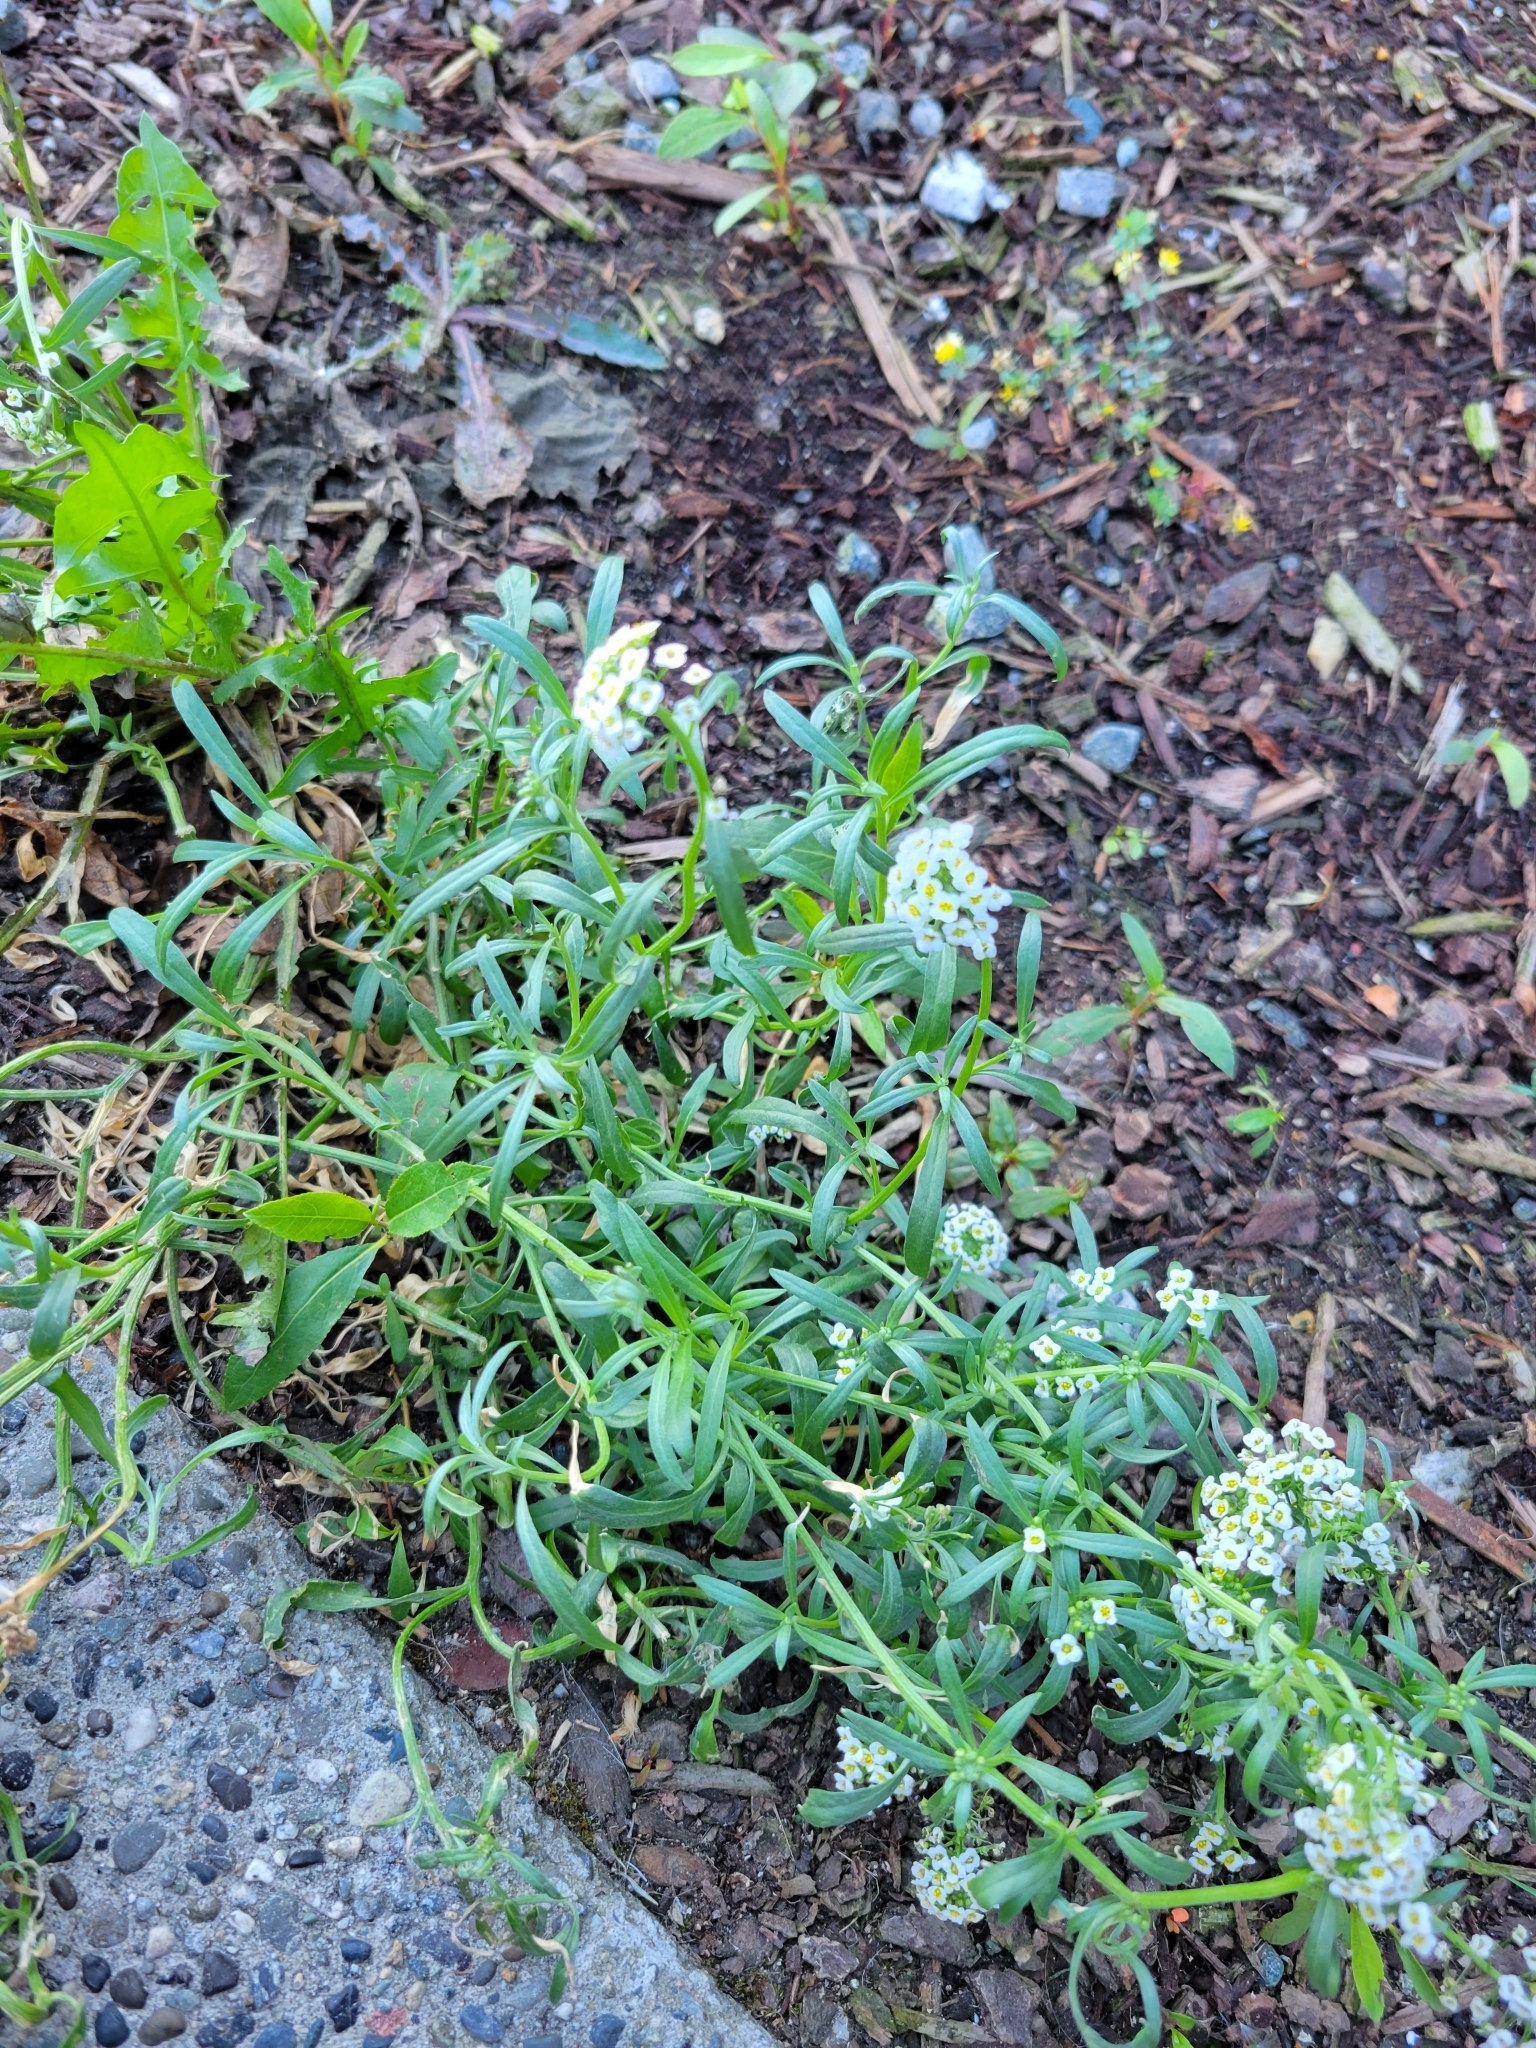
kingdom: Plantae
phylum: Tracheophyta
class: Magnoliopsida
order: Brassicales
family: Brassicaceae
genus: Lobularia
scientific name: Lobularia maritima
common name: Sweet alison
